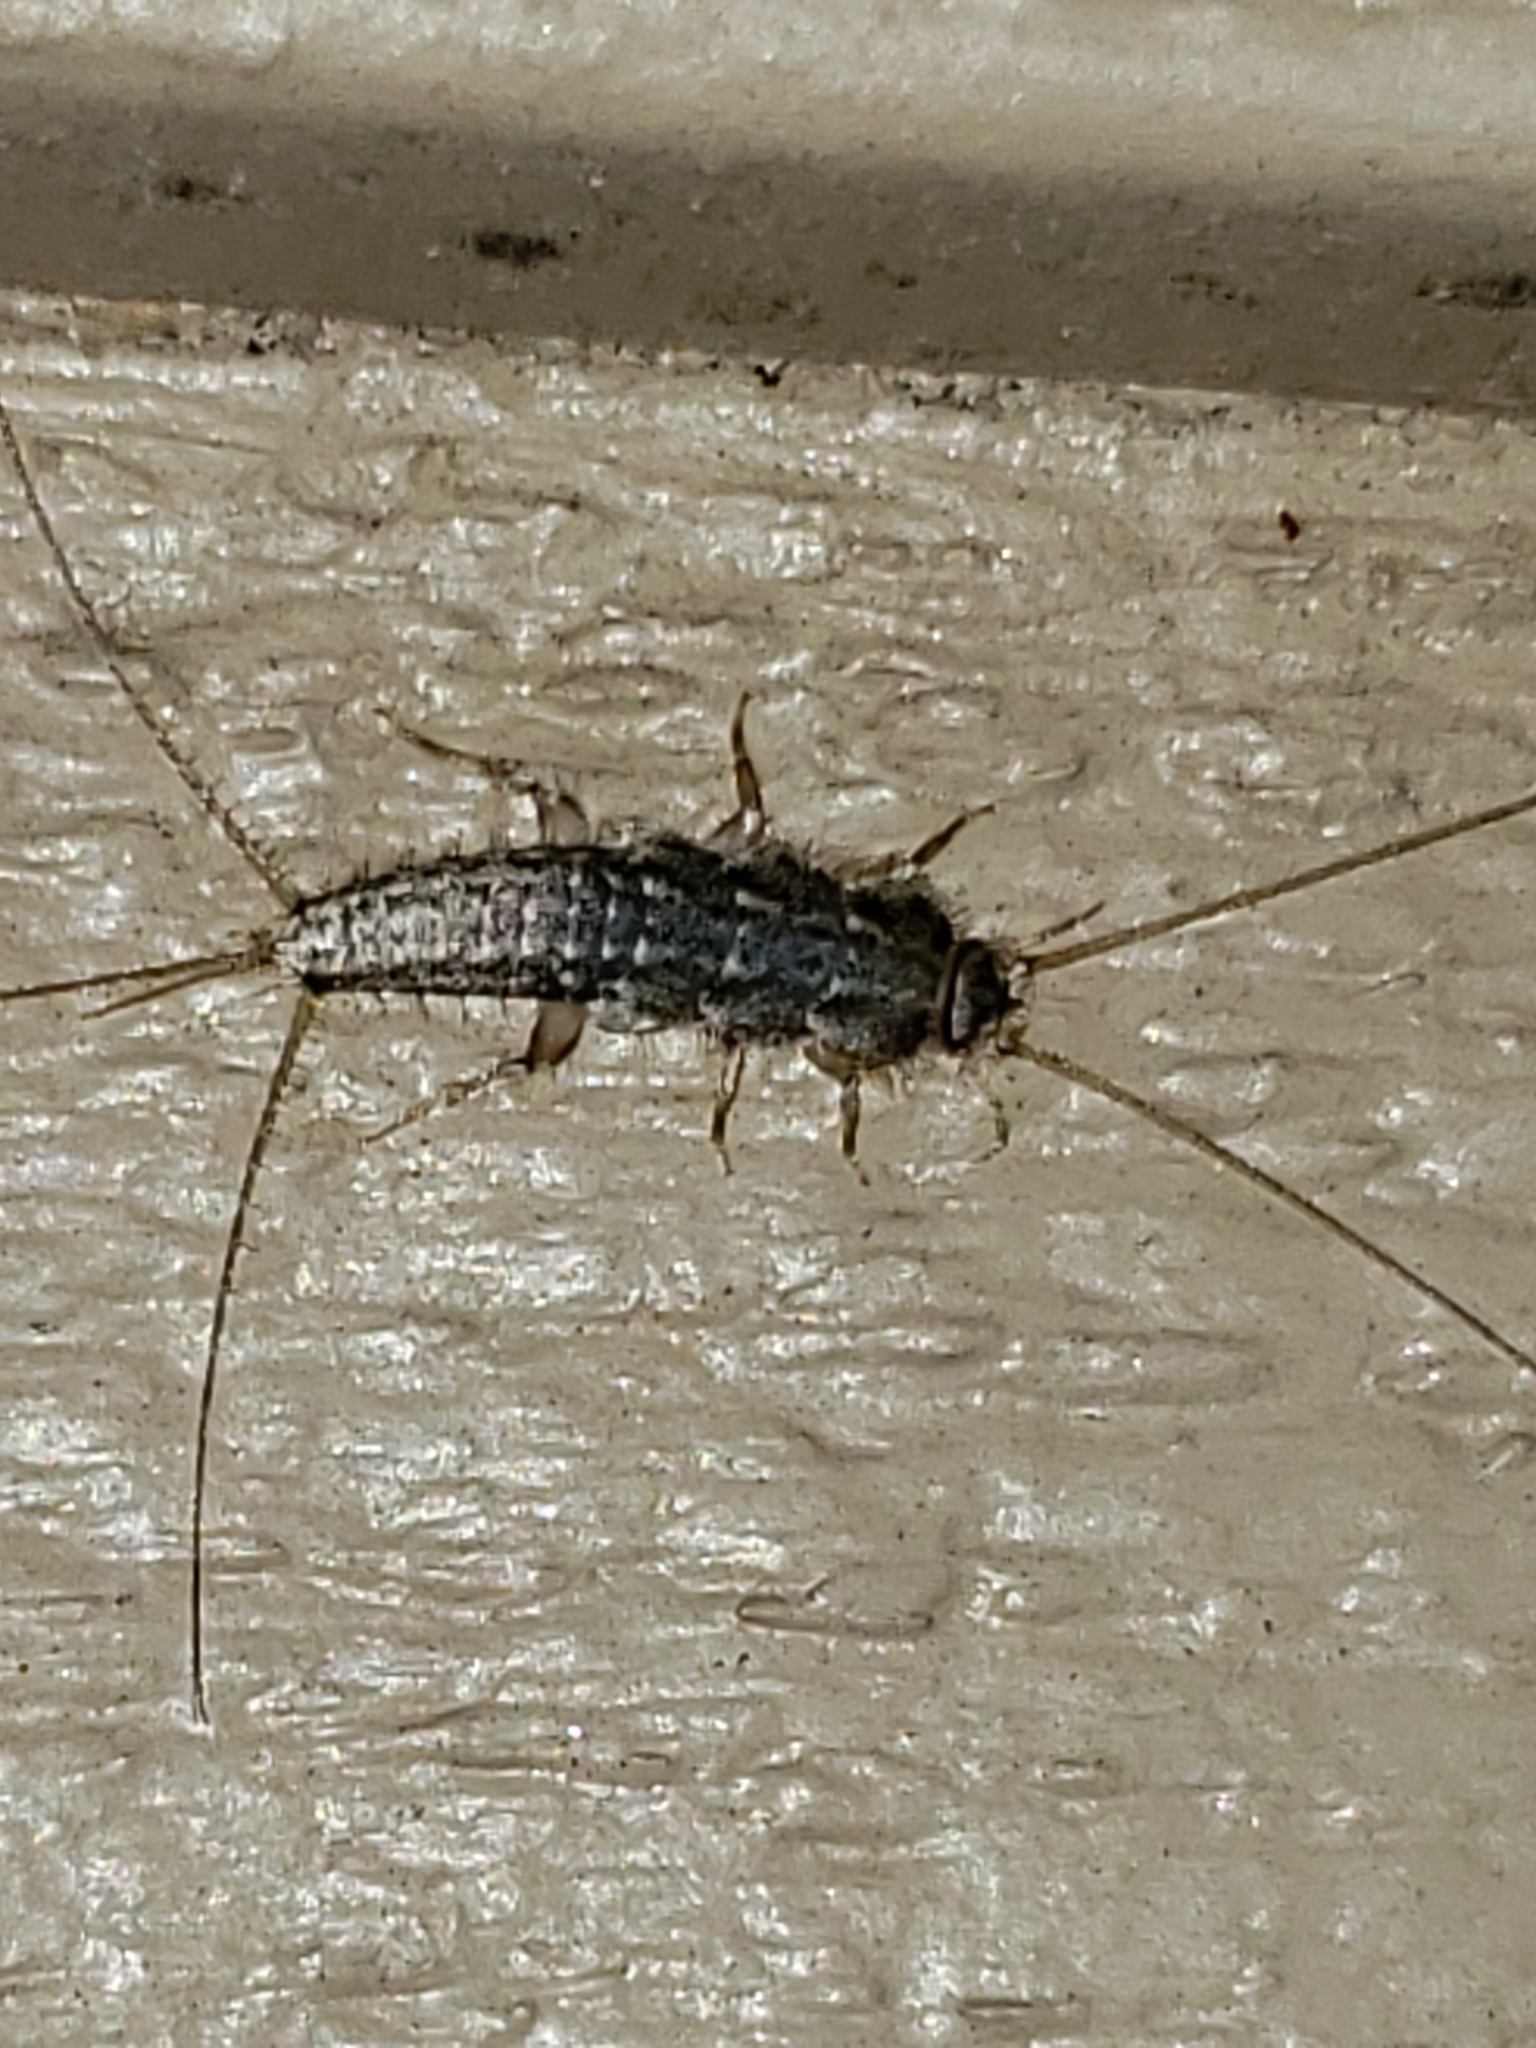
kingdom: Animalia
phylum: Arthropoda
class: Insecta
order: Zygentoma
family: Lepismatidae
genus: Ctenolepisma
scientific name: Ctenolepisma lineata
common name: Four-lined silverfish
